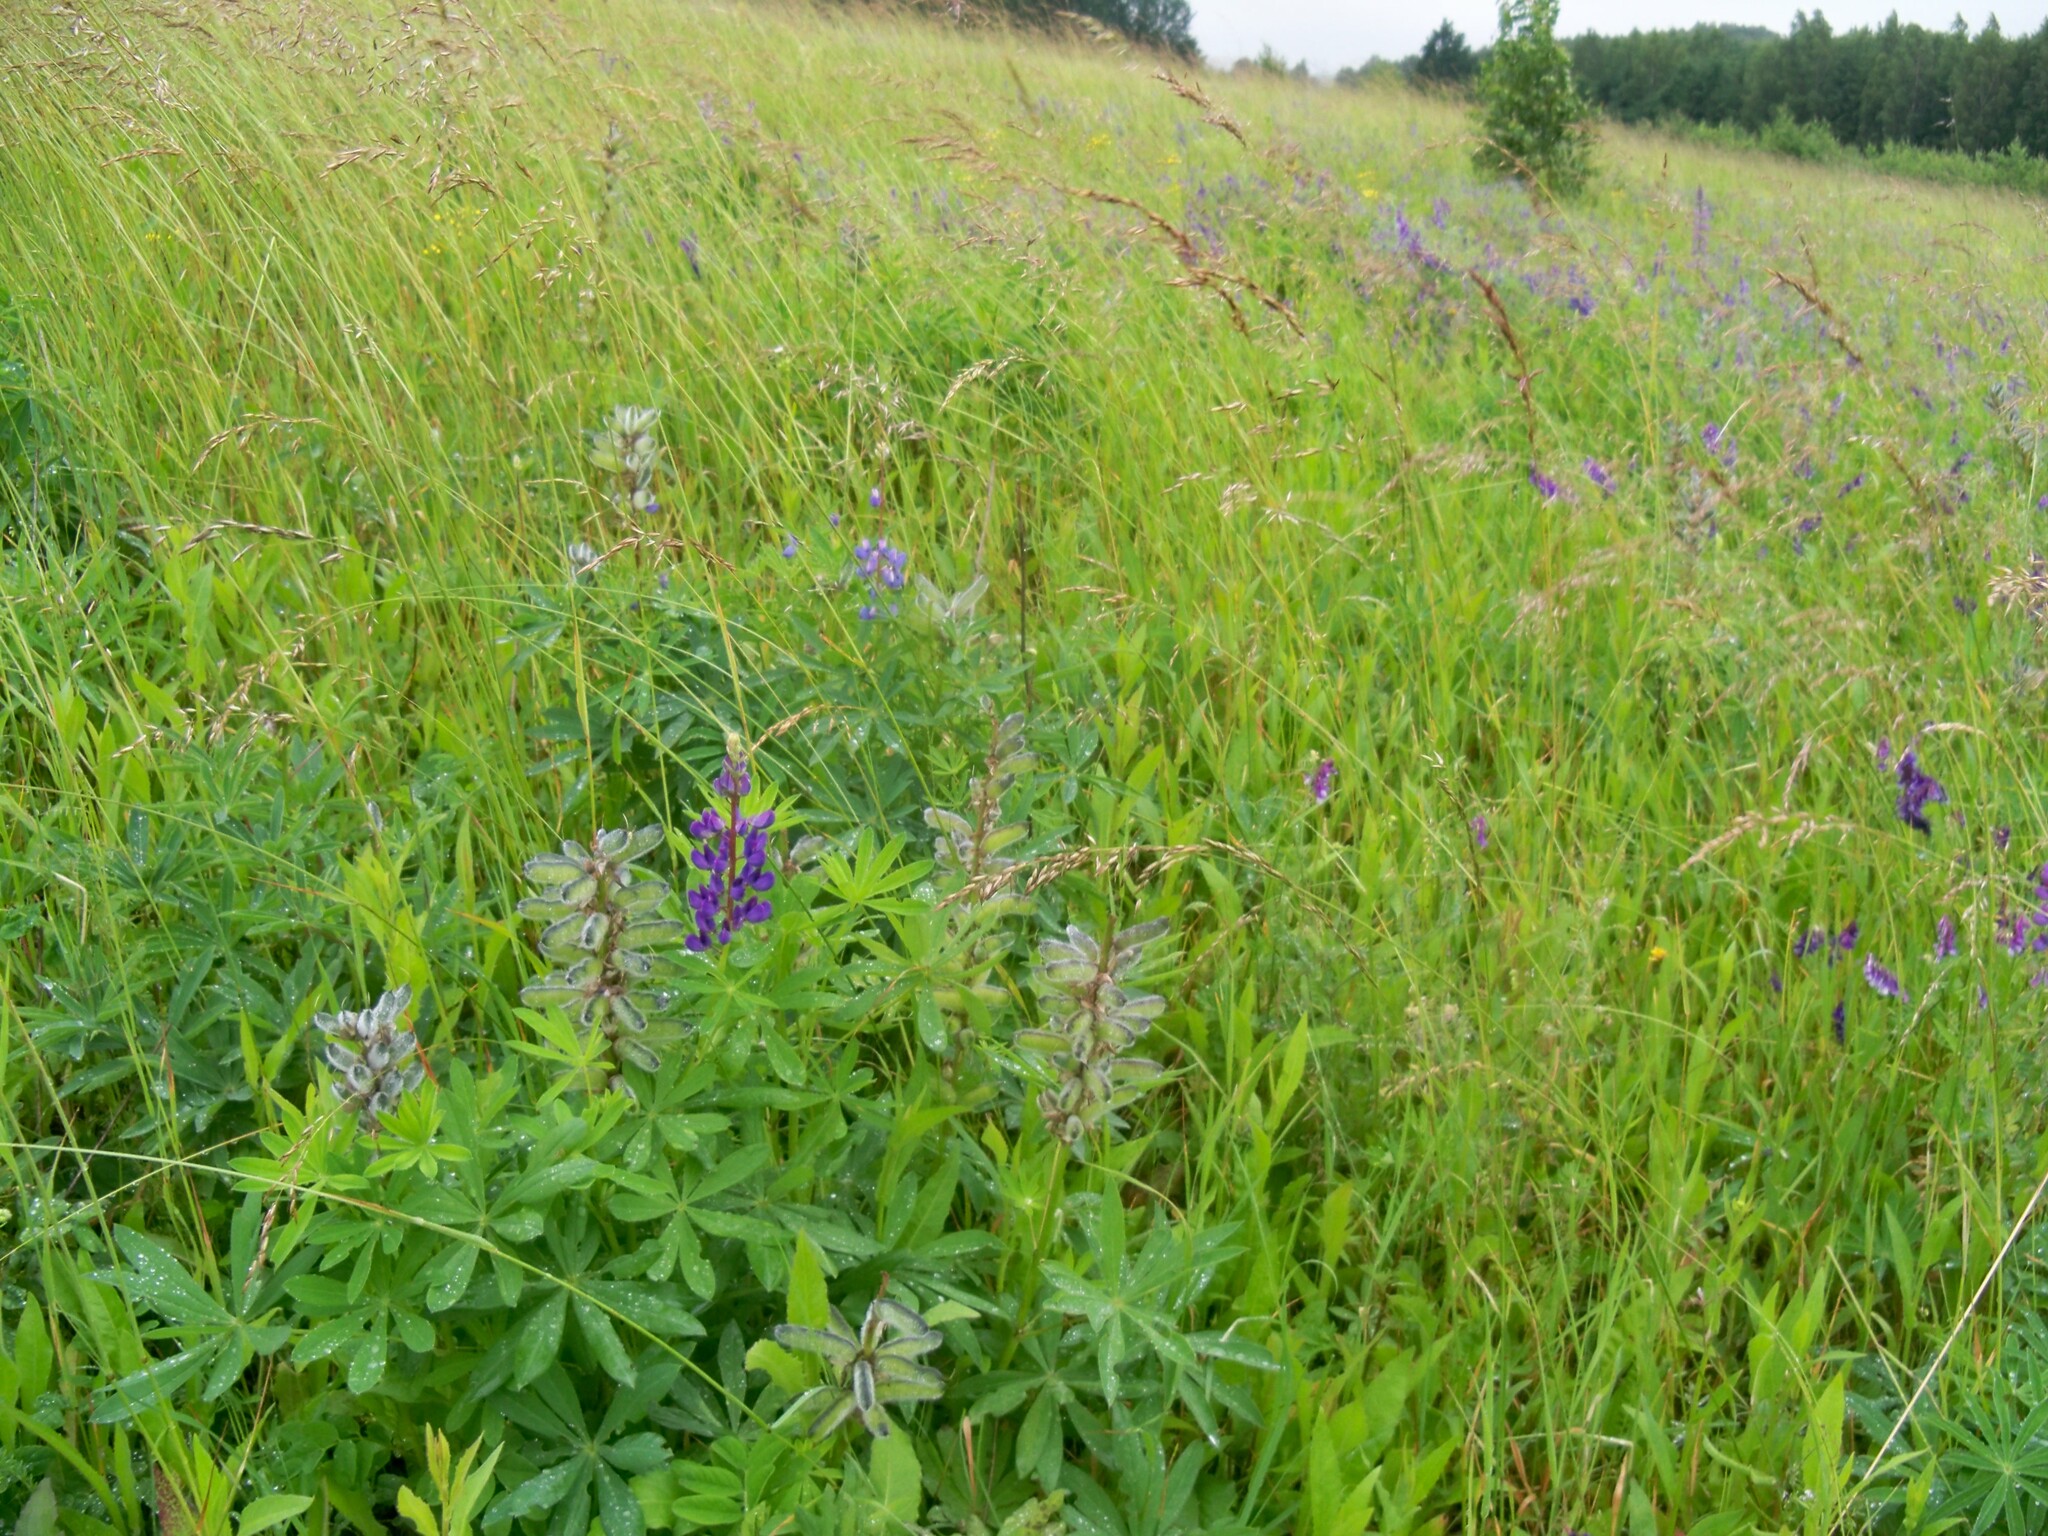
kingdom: Plantae
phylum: Tracheophyta
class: Magnoliopsida
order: Fabales
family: Fabaceae
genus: Lupinus
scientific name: Lupinus polyphyllus
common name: Garden lupin
